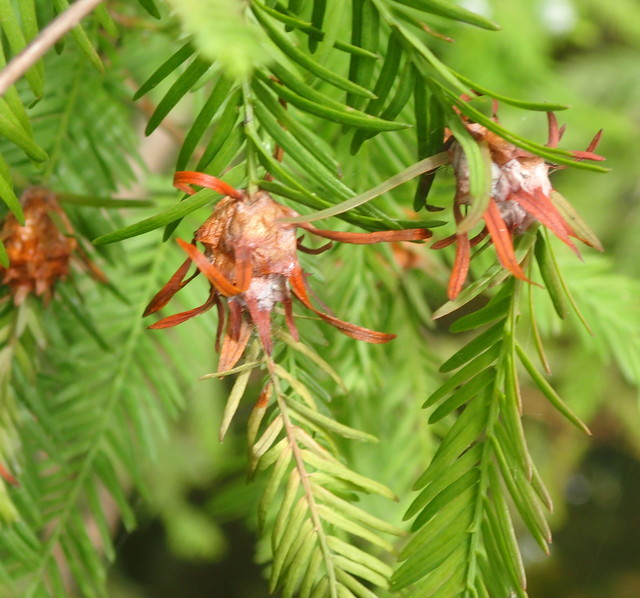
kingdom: Animalia
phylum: Arthropoda
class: Insecta
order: Diptera
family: Cecidomyiidae
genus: Taxodiomyia
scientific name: Taxodiomyia cupressiananassa
